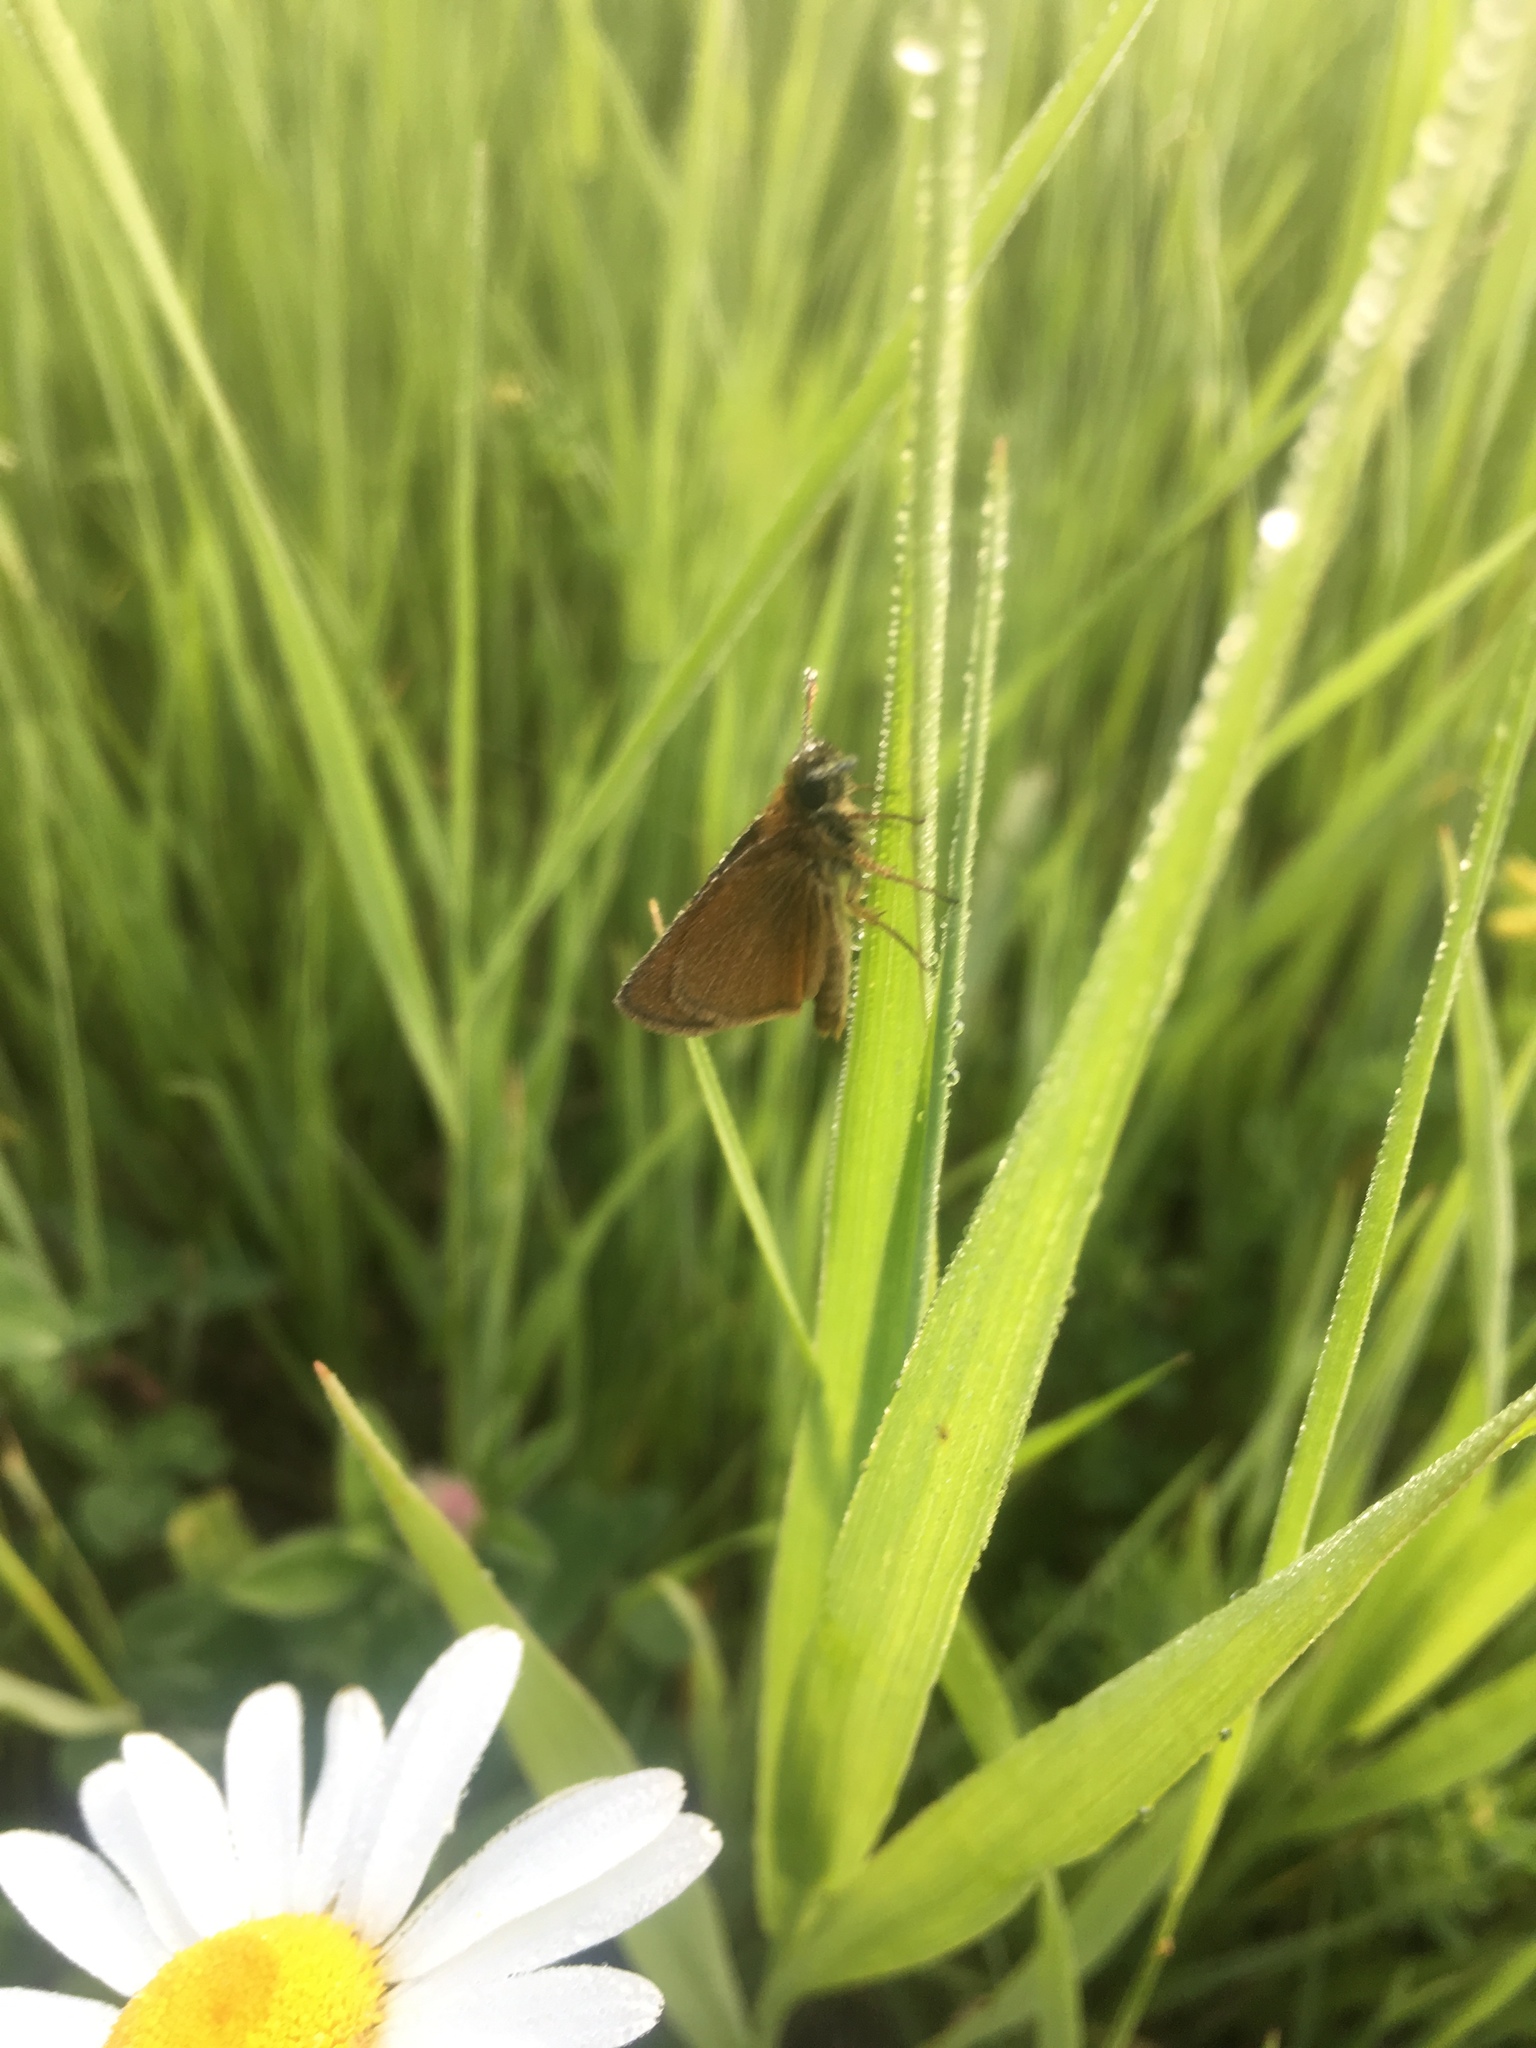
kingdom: Animalia
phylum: Arthropoda
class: Insecta
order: Lepidoptera
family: Hesperiidae
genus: Thymelicus
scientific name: Thymelicus lineola
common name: Essex skipper
